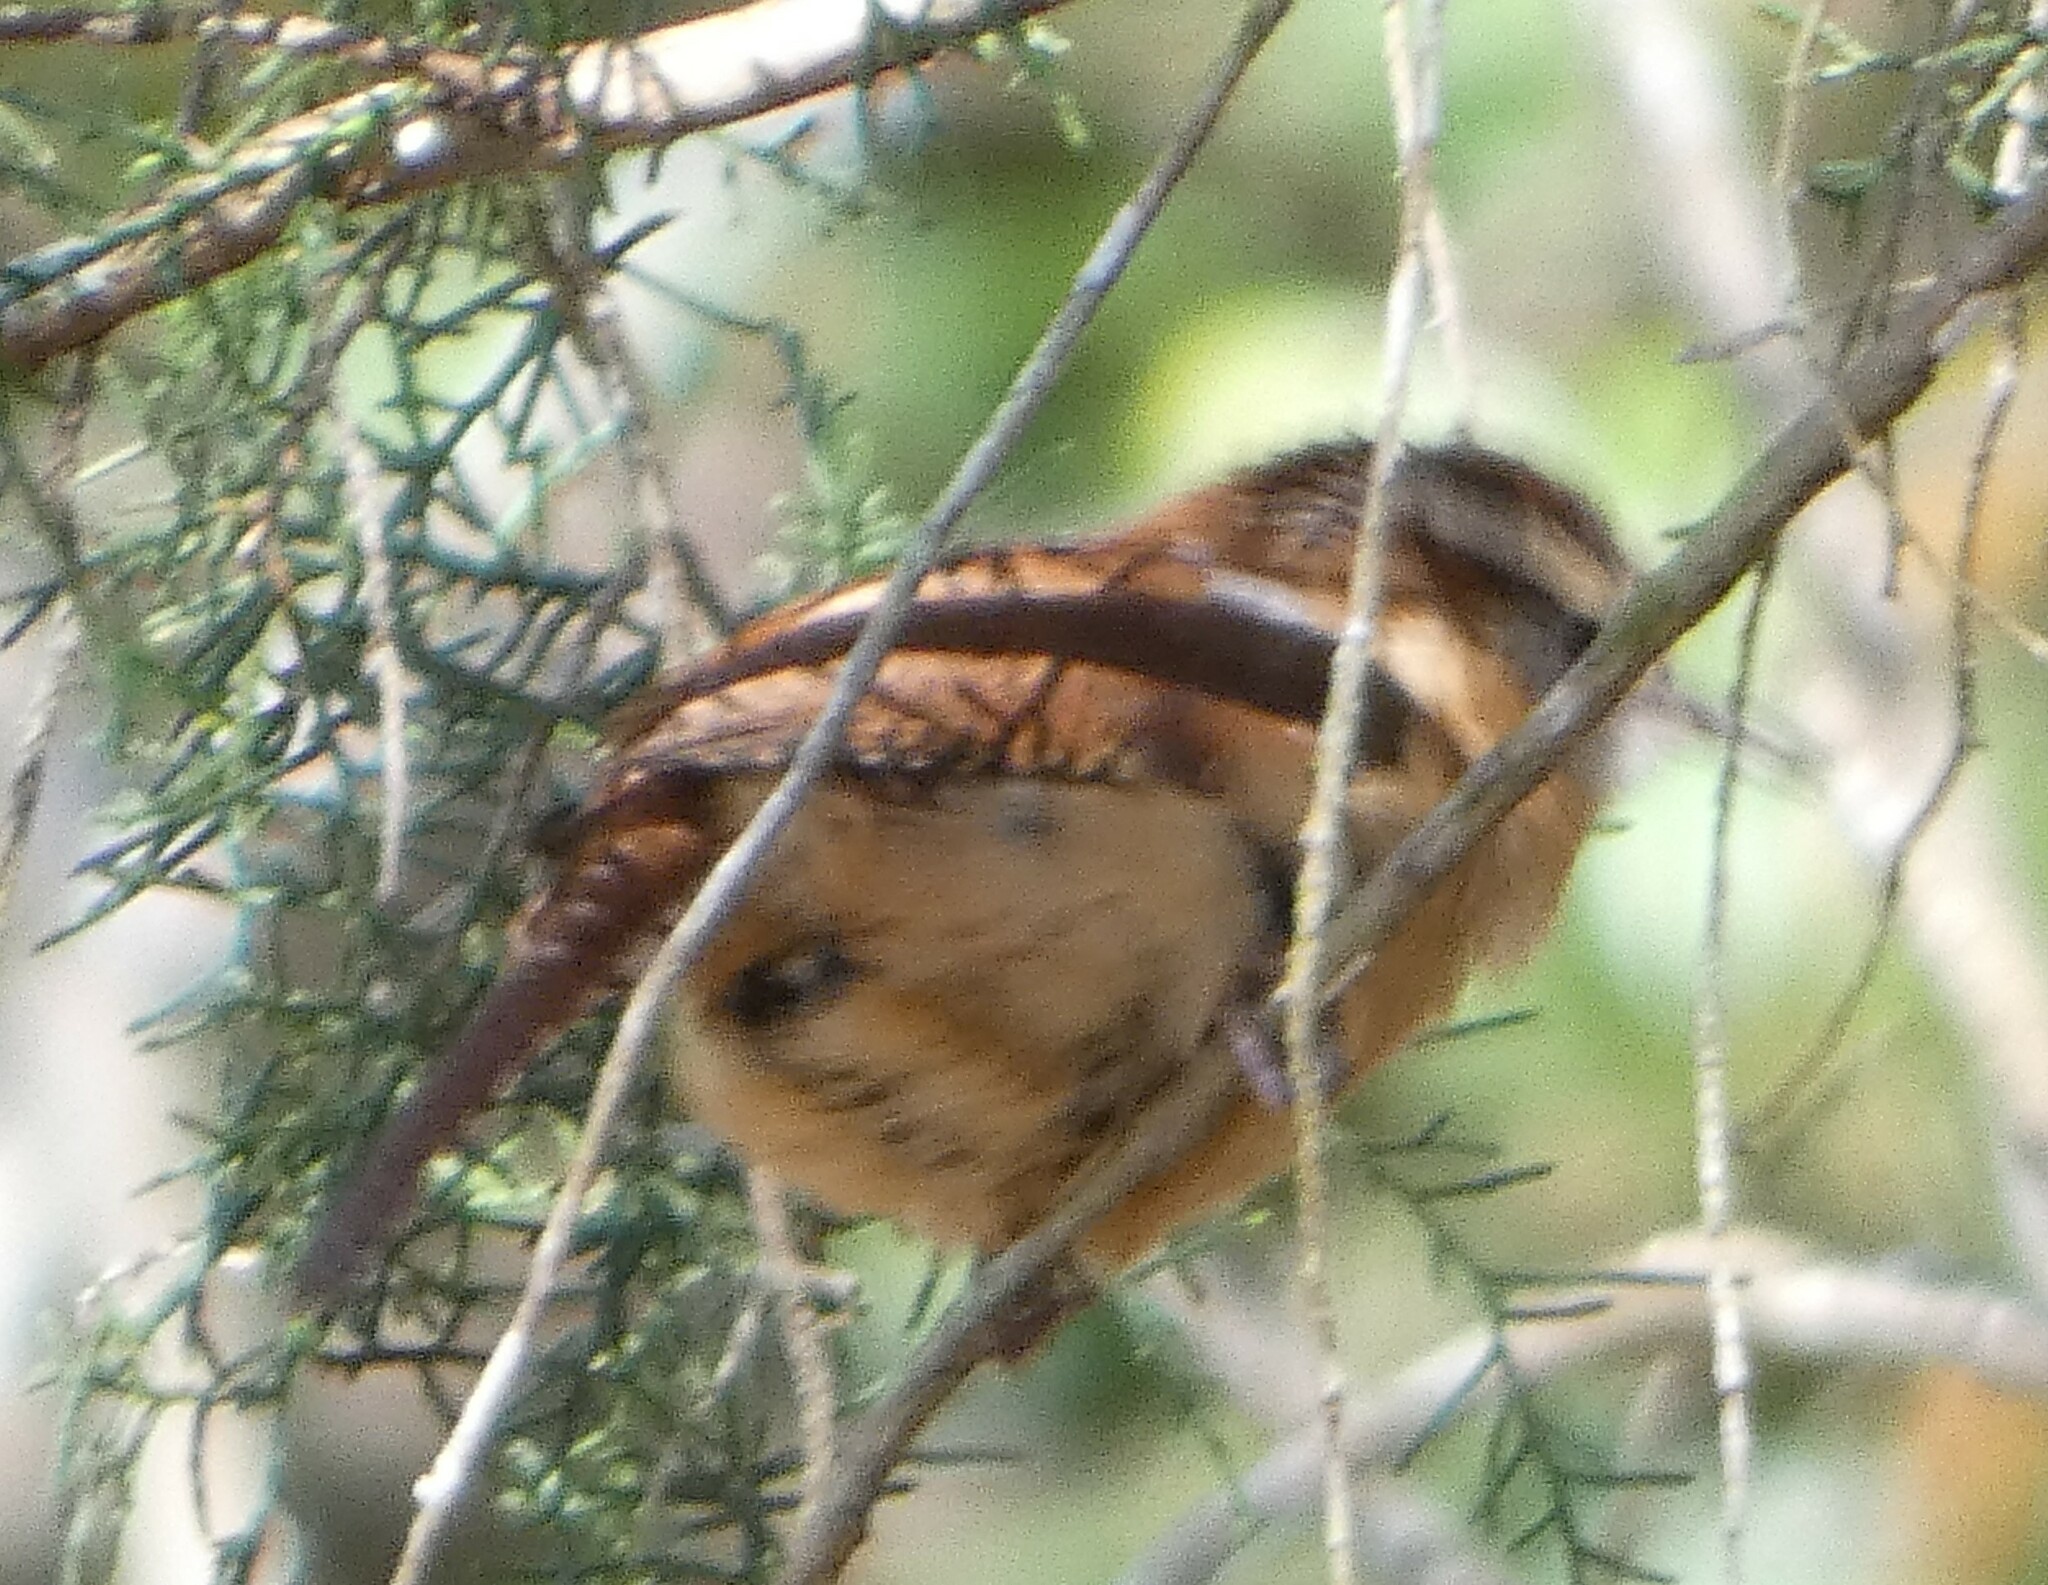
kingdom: Animalia
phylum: Chordata
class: Aves
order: Passeriformes
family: Troglodytidae
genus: Thryothorus
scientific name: Thryothorus ludovicianus
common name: Carolina wren
